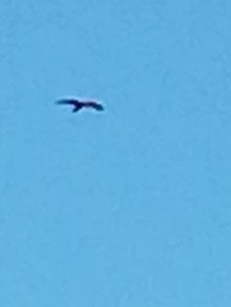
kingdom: Animalia
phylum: Chordata
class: Aves
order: Accipitriformes
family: Accipitridae
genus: Milvus
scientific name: Milvus migrans
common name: Black kite
